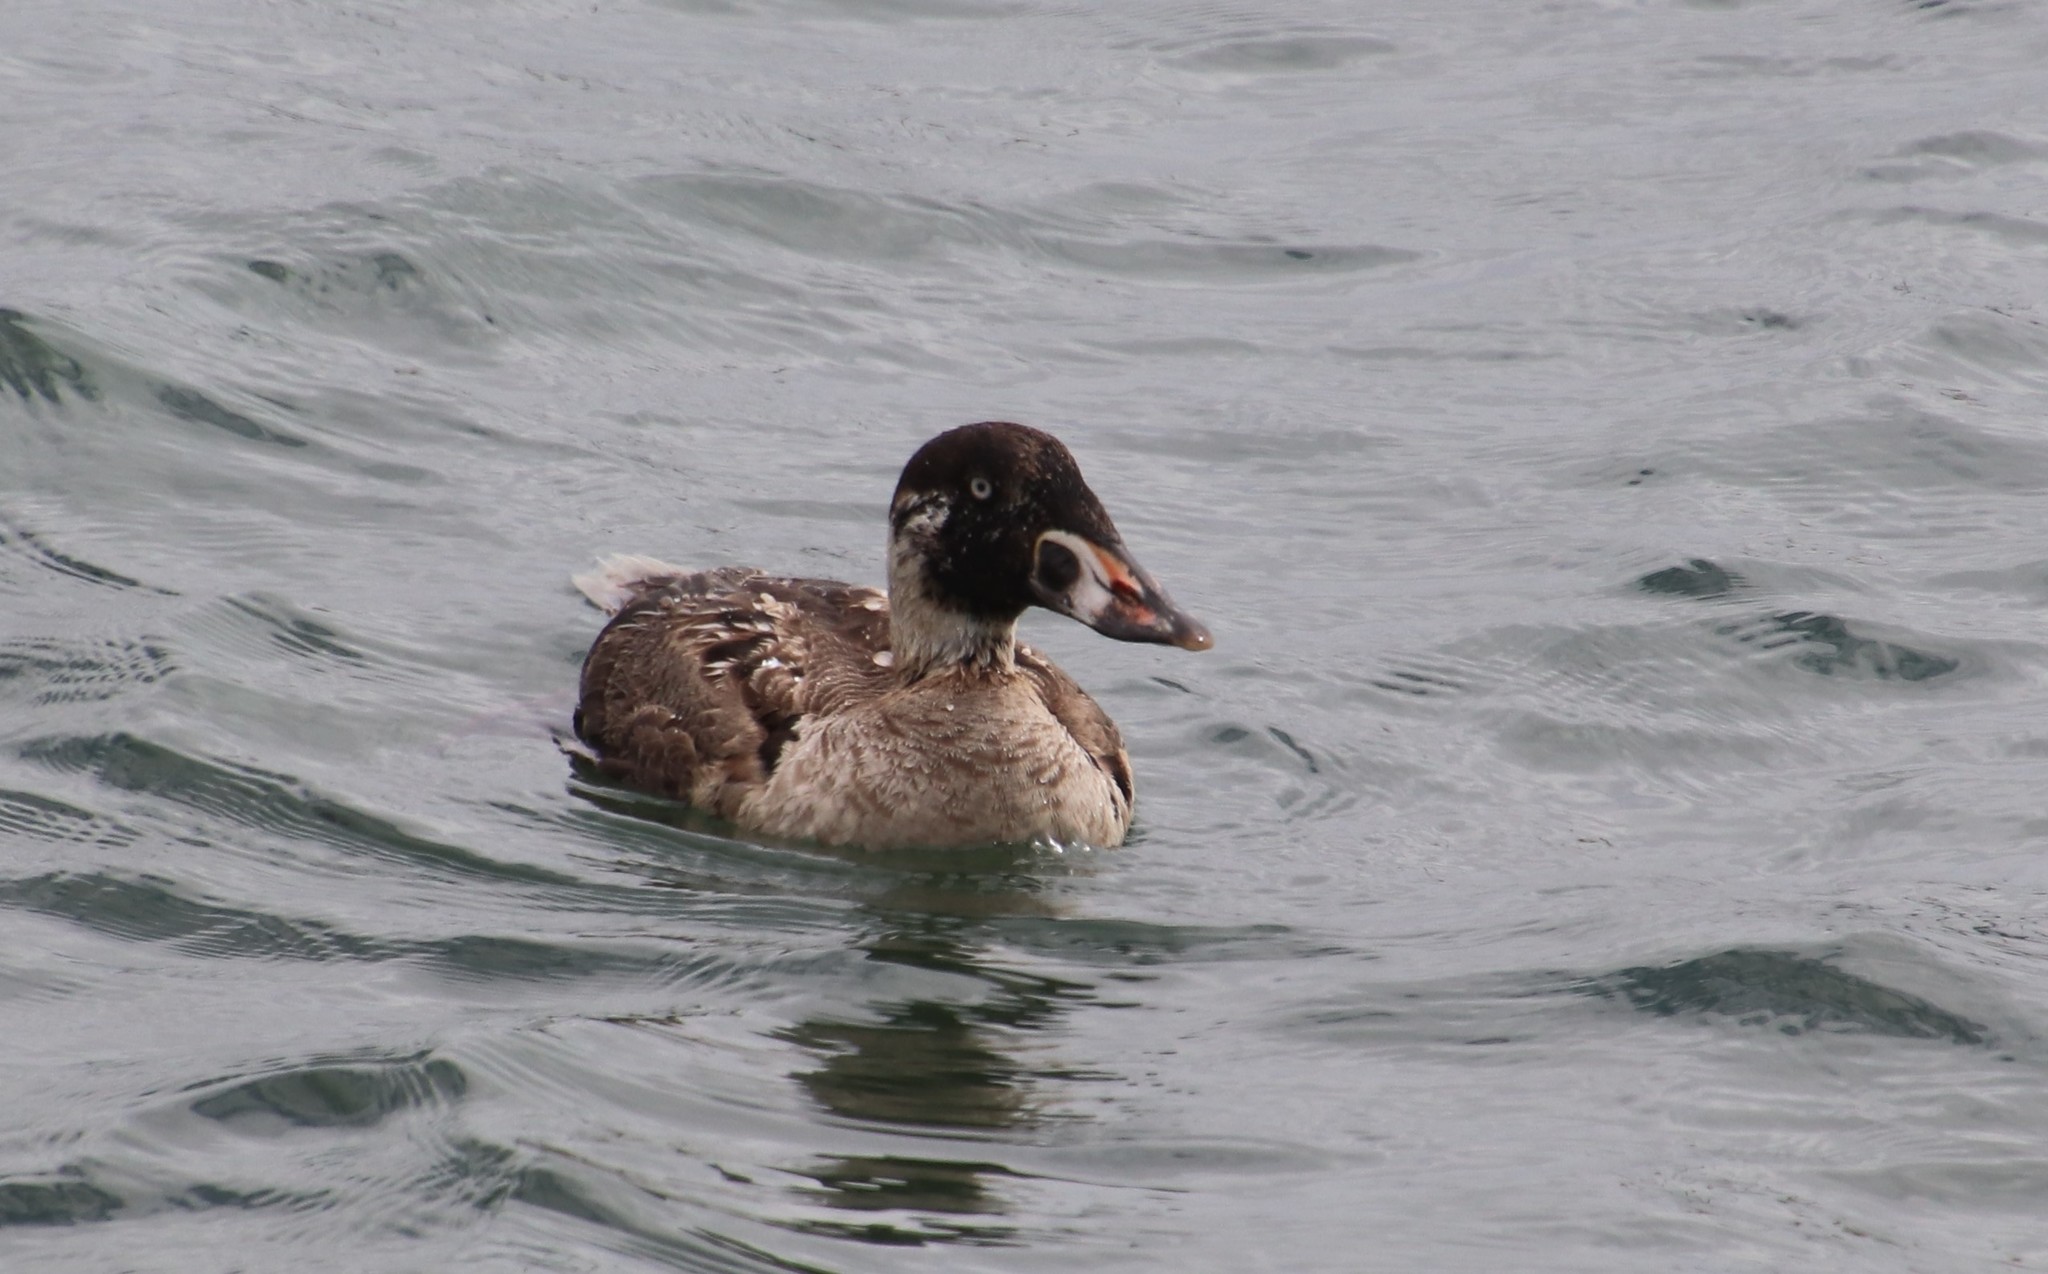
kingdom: Animalia
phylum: Chordata
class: Aves
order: Anseriformes
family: Anatidae
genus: Melanitta
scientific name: Melanitta perspicillata
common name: Surf scoter
